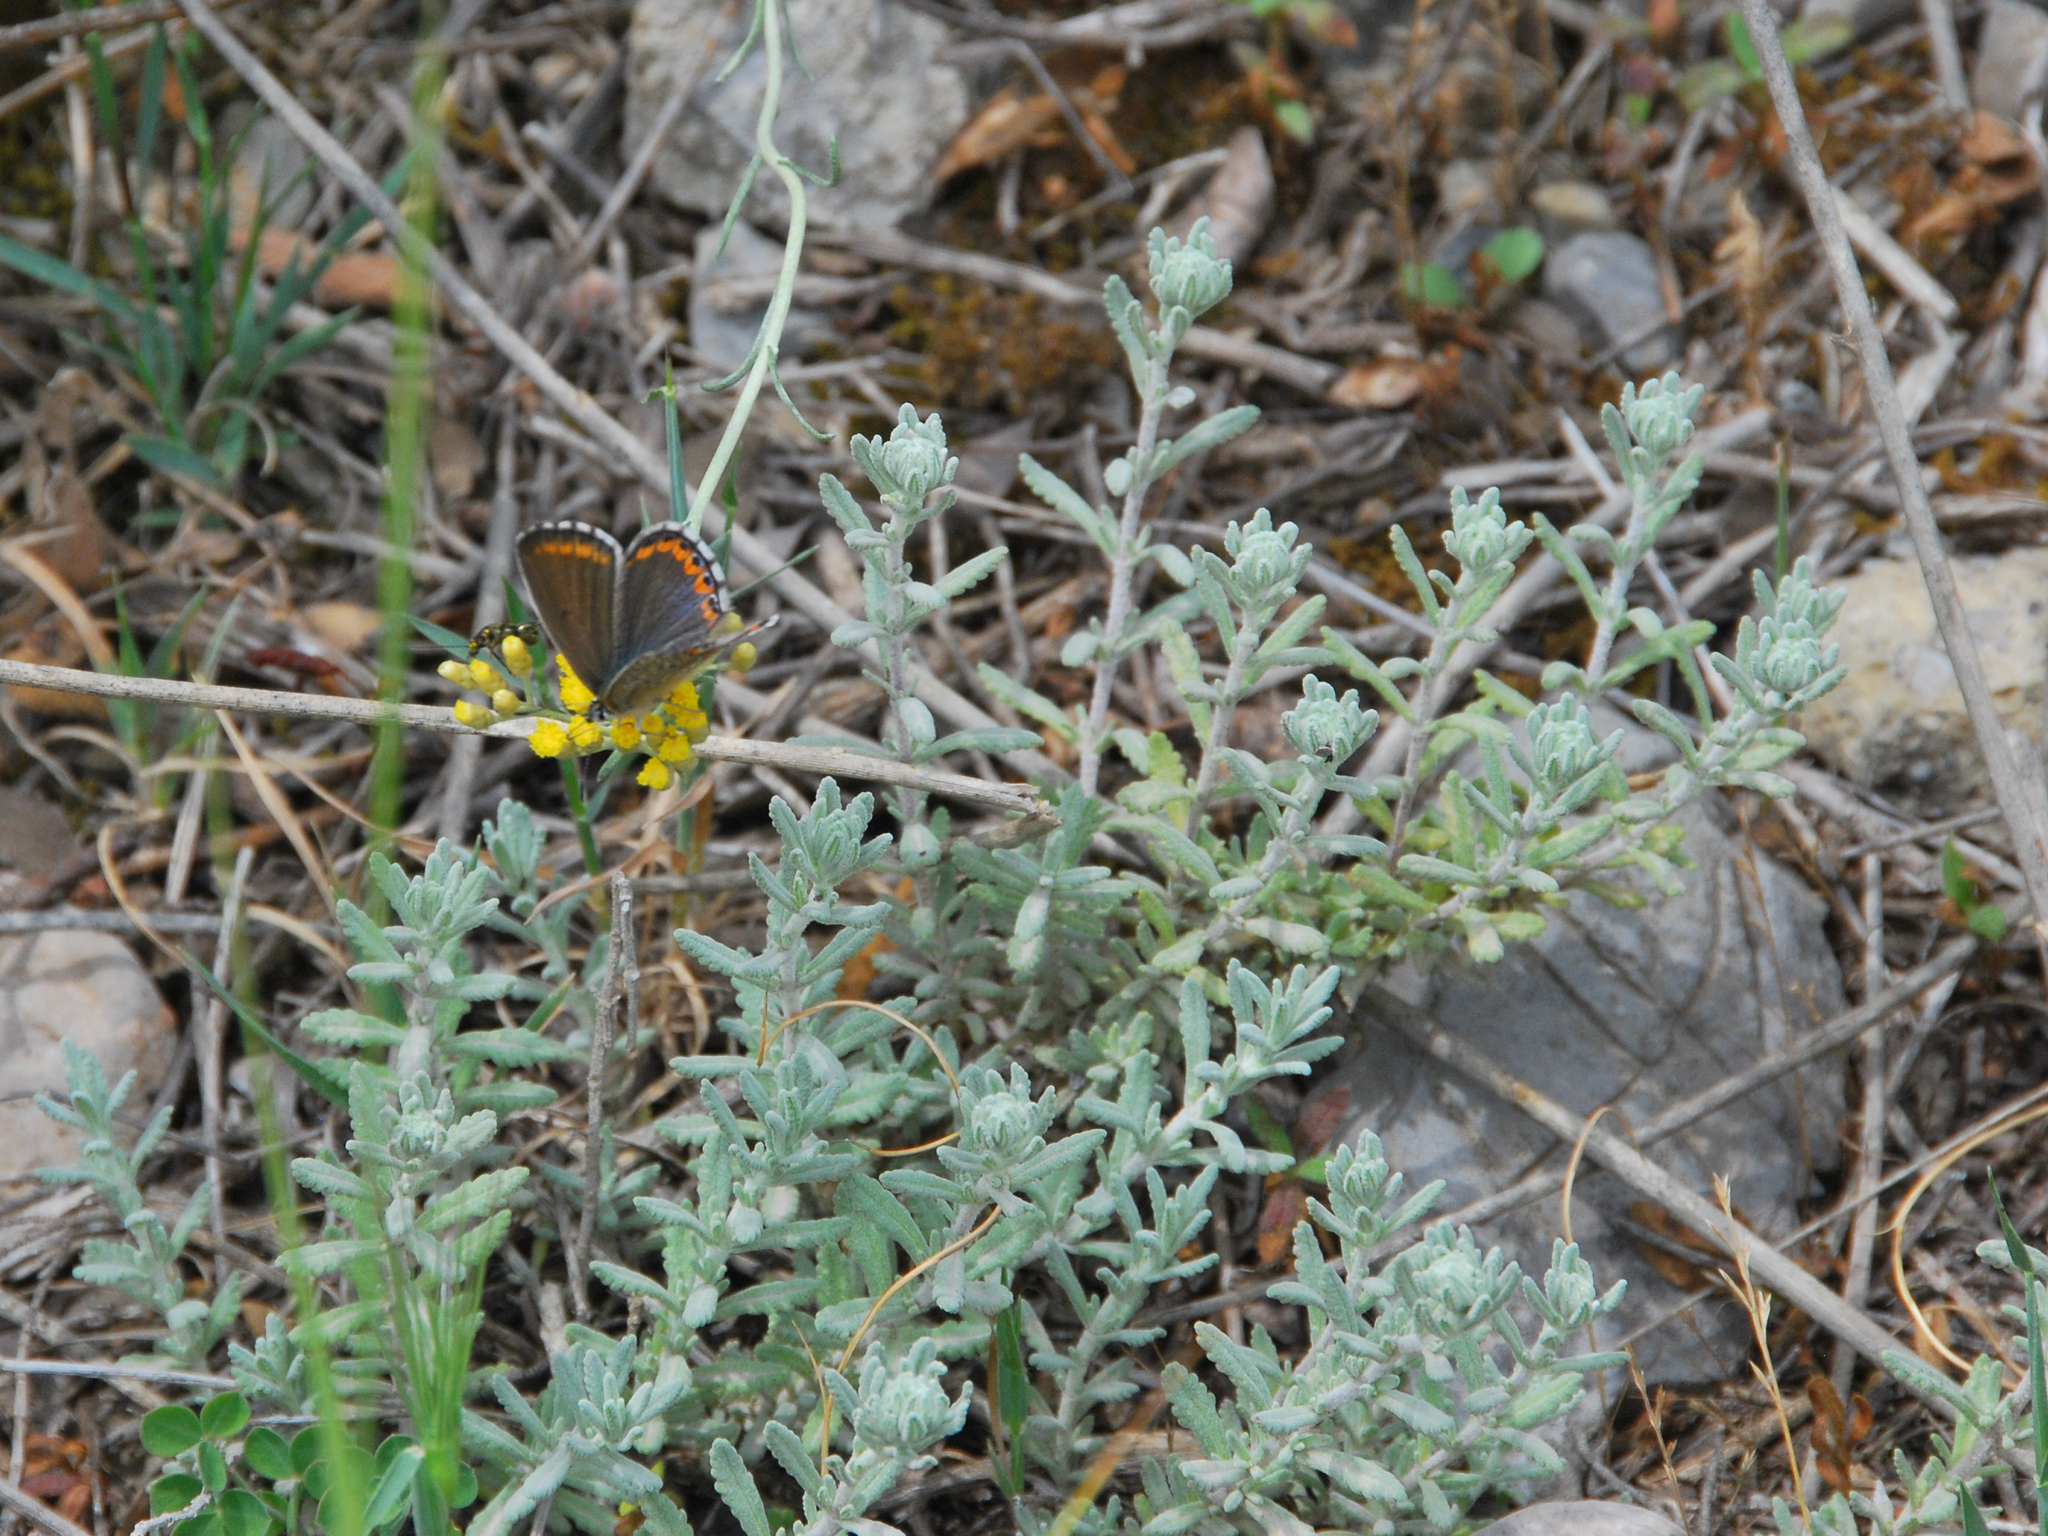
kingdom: Plantae
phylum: Tracheophyta
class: Magnoliopsida
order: Lamiales
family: Lamiaceae
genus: Teucrium
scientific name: Teucrium capitatum
